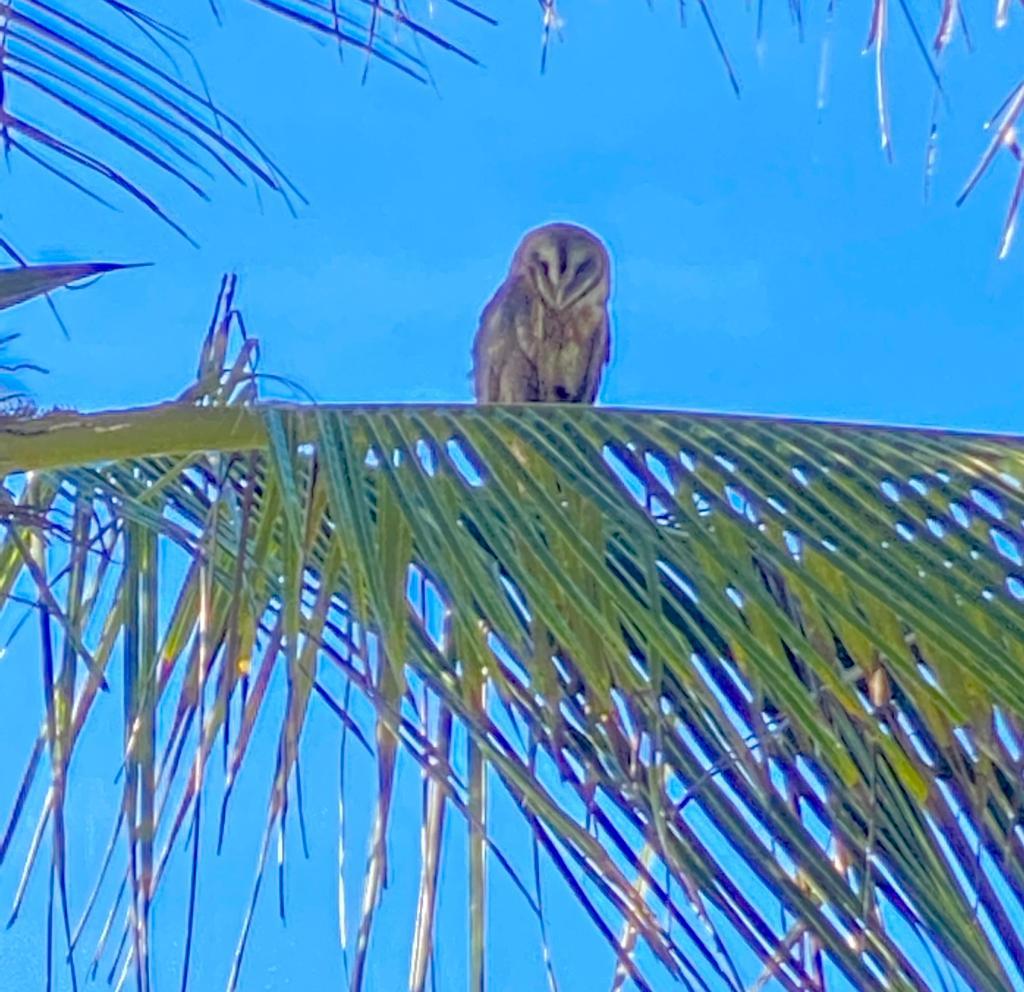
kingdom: Animalia
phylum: Chordata
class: Aves
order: Strigiformes
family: Tytonidae
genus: Tyto
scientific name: Tyto alba
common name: Barn owl
